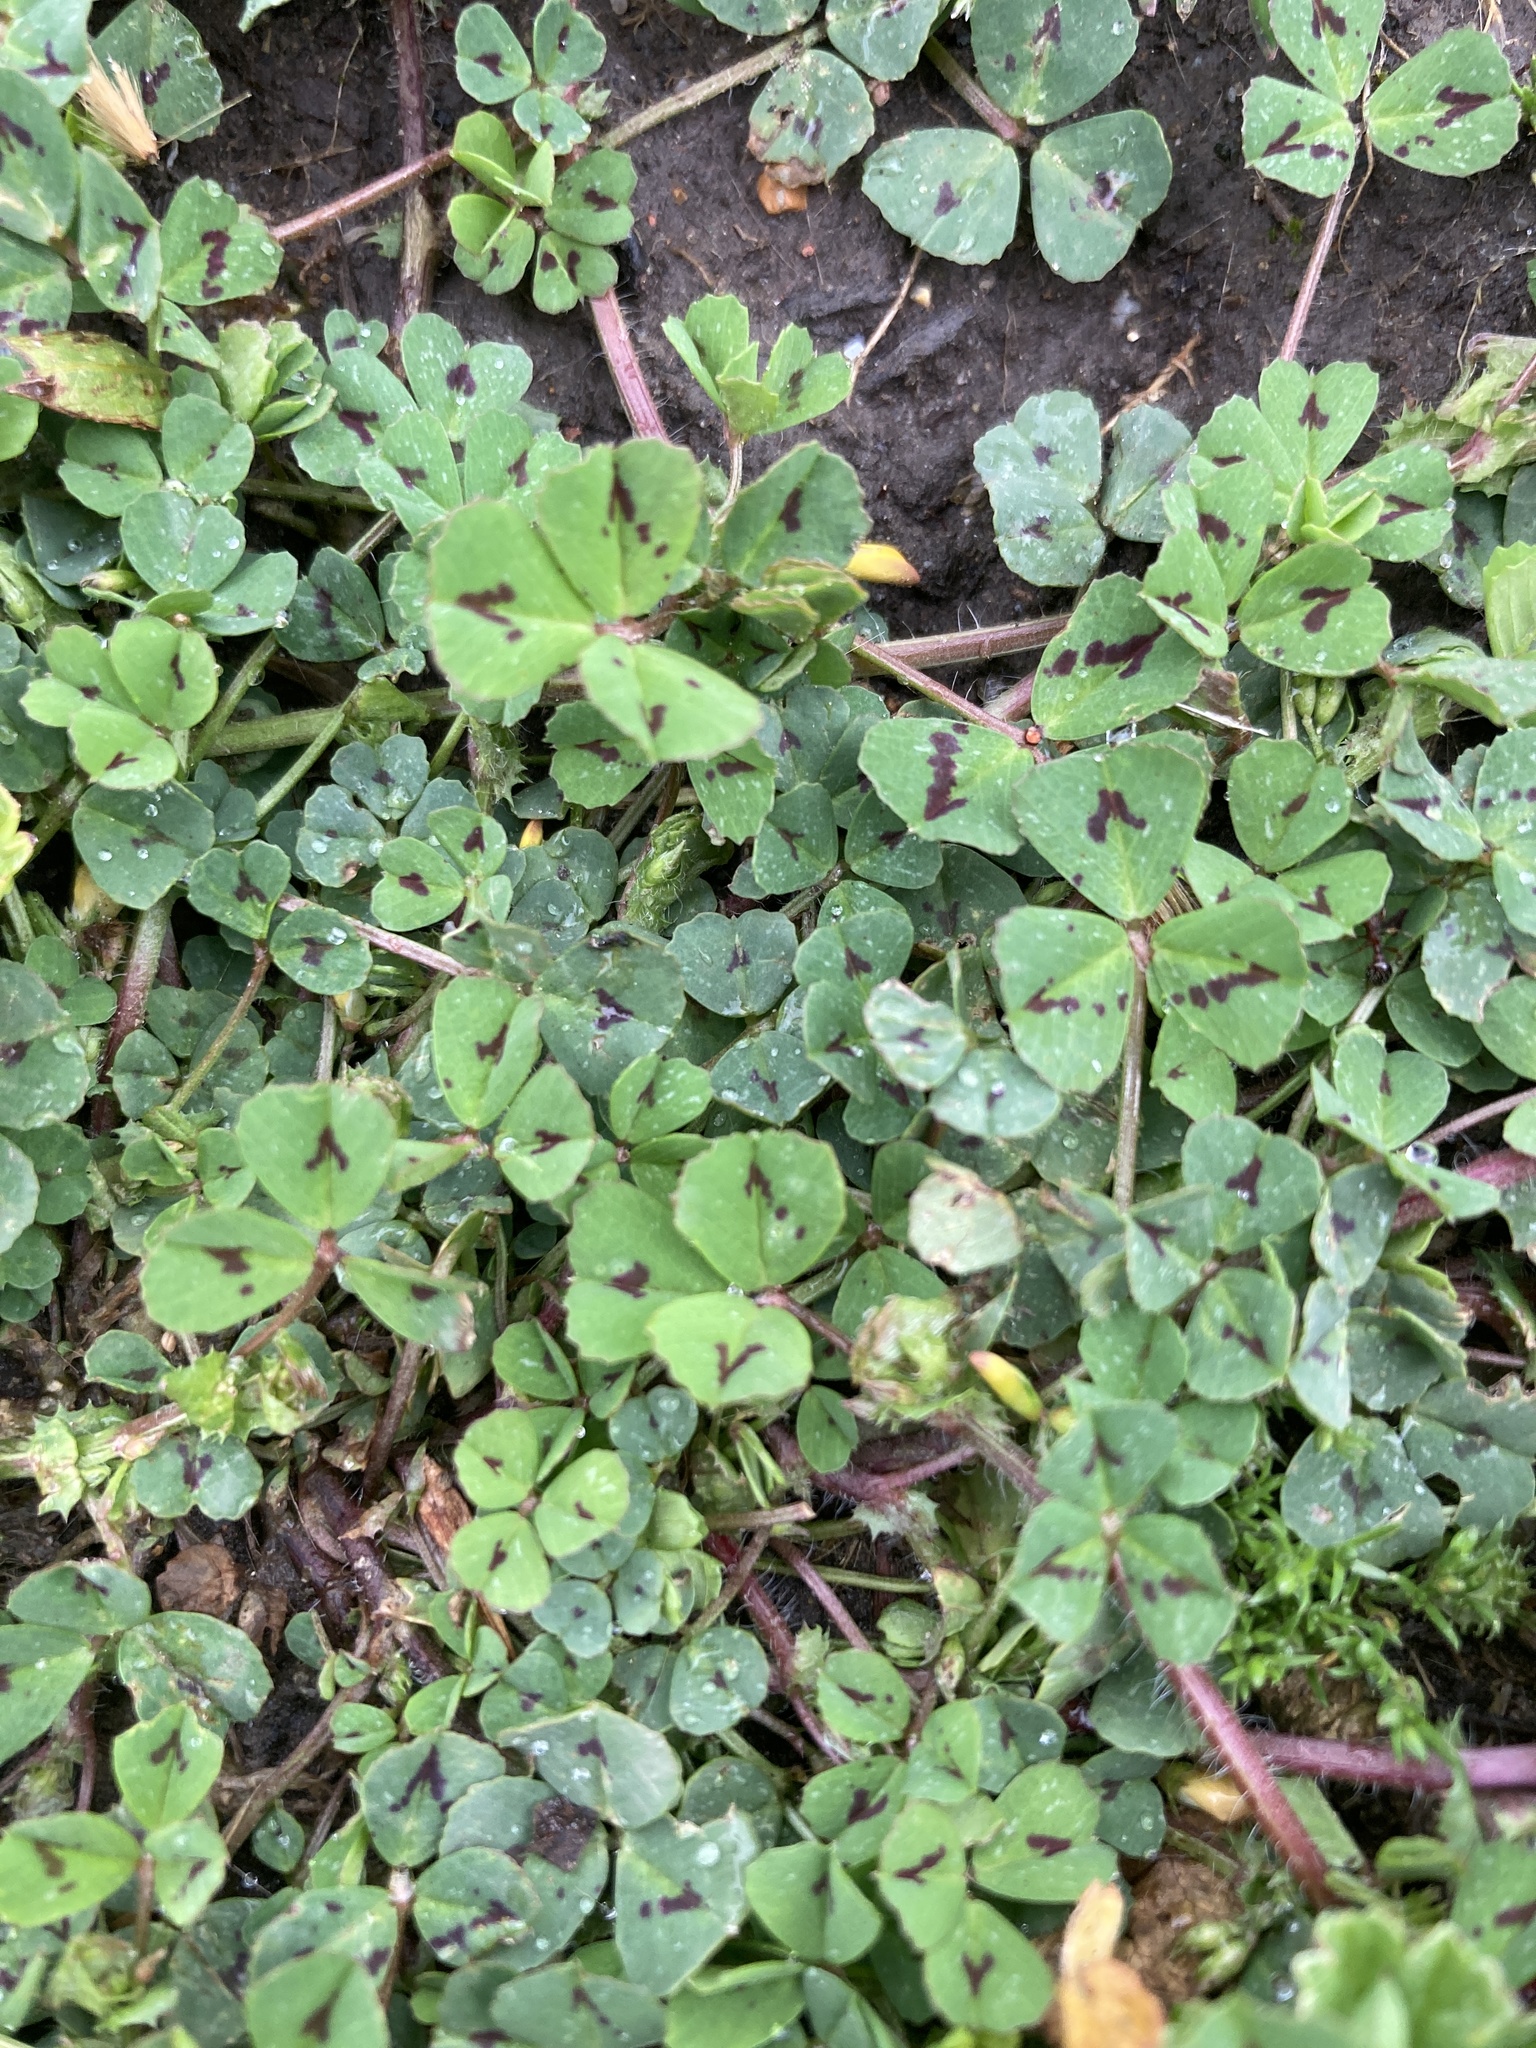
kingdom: Plantae
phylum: Tracheophyta
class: Magnoliopsida
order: Fabales
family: Fabaceae
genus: Medicago
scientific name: Medicago arabica
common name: Spotted medick
